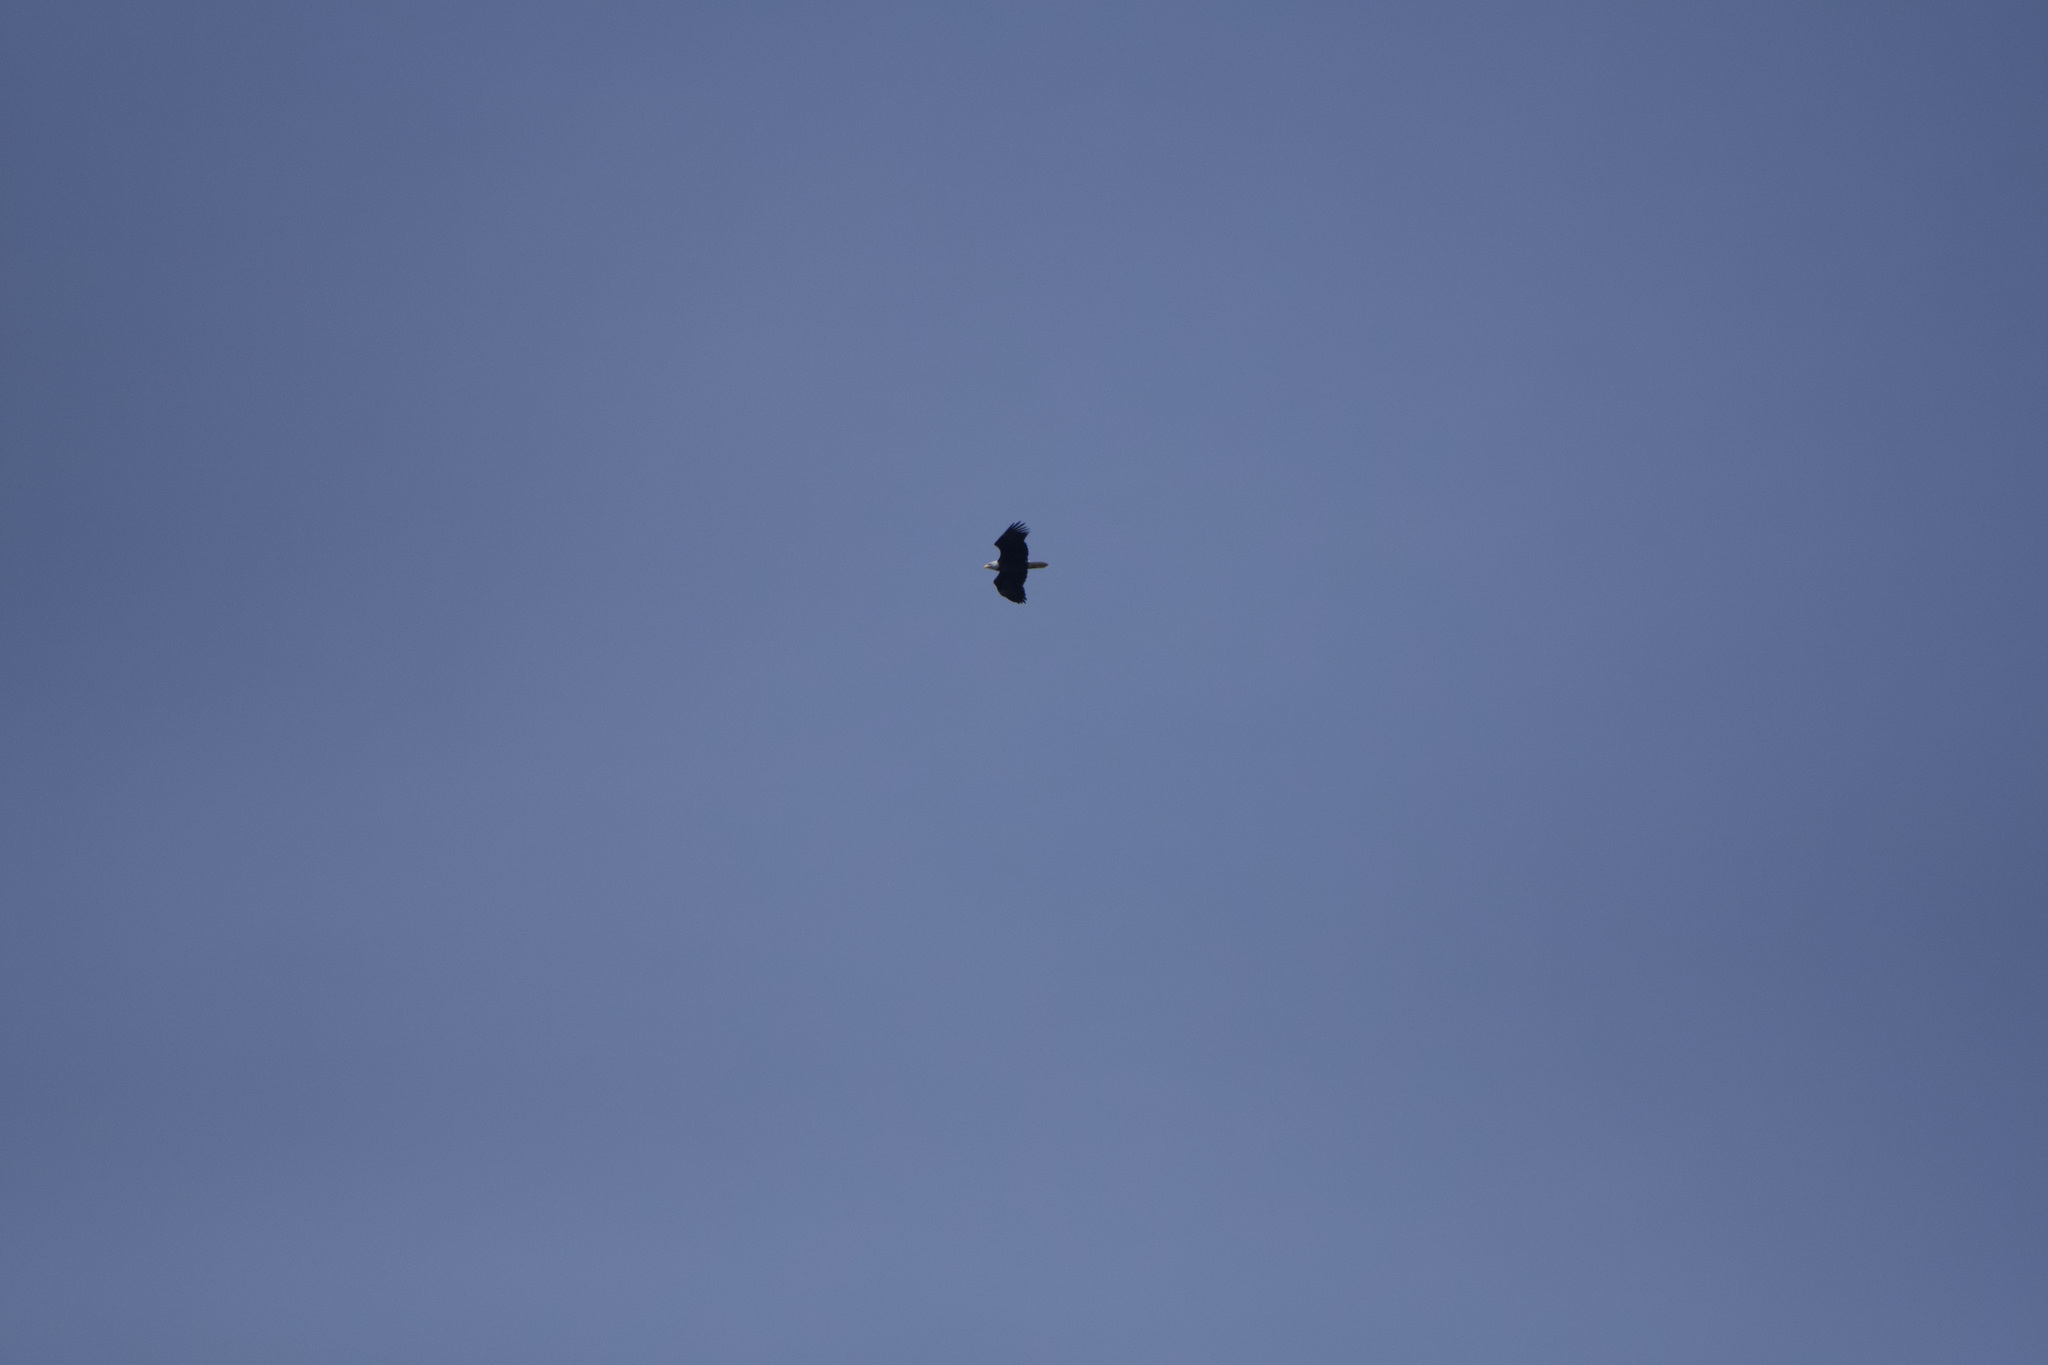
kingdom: Animalia
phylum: Chordata
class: Aves
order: Accipitriformes
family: Accipitridae
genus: Haliaeetus
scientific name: Haliaeetus leucocephalus
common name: Bald eagle
